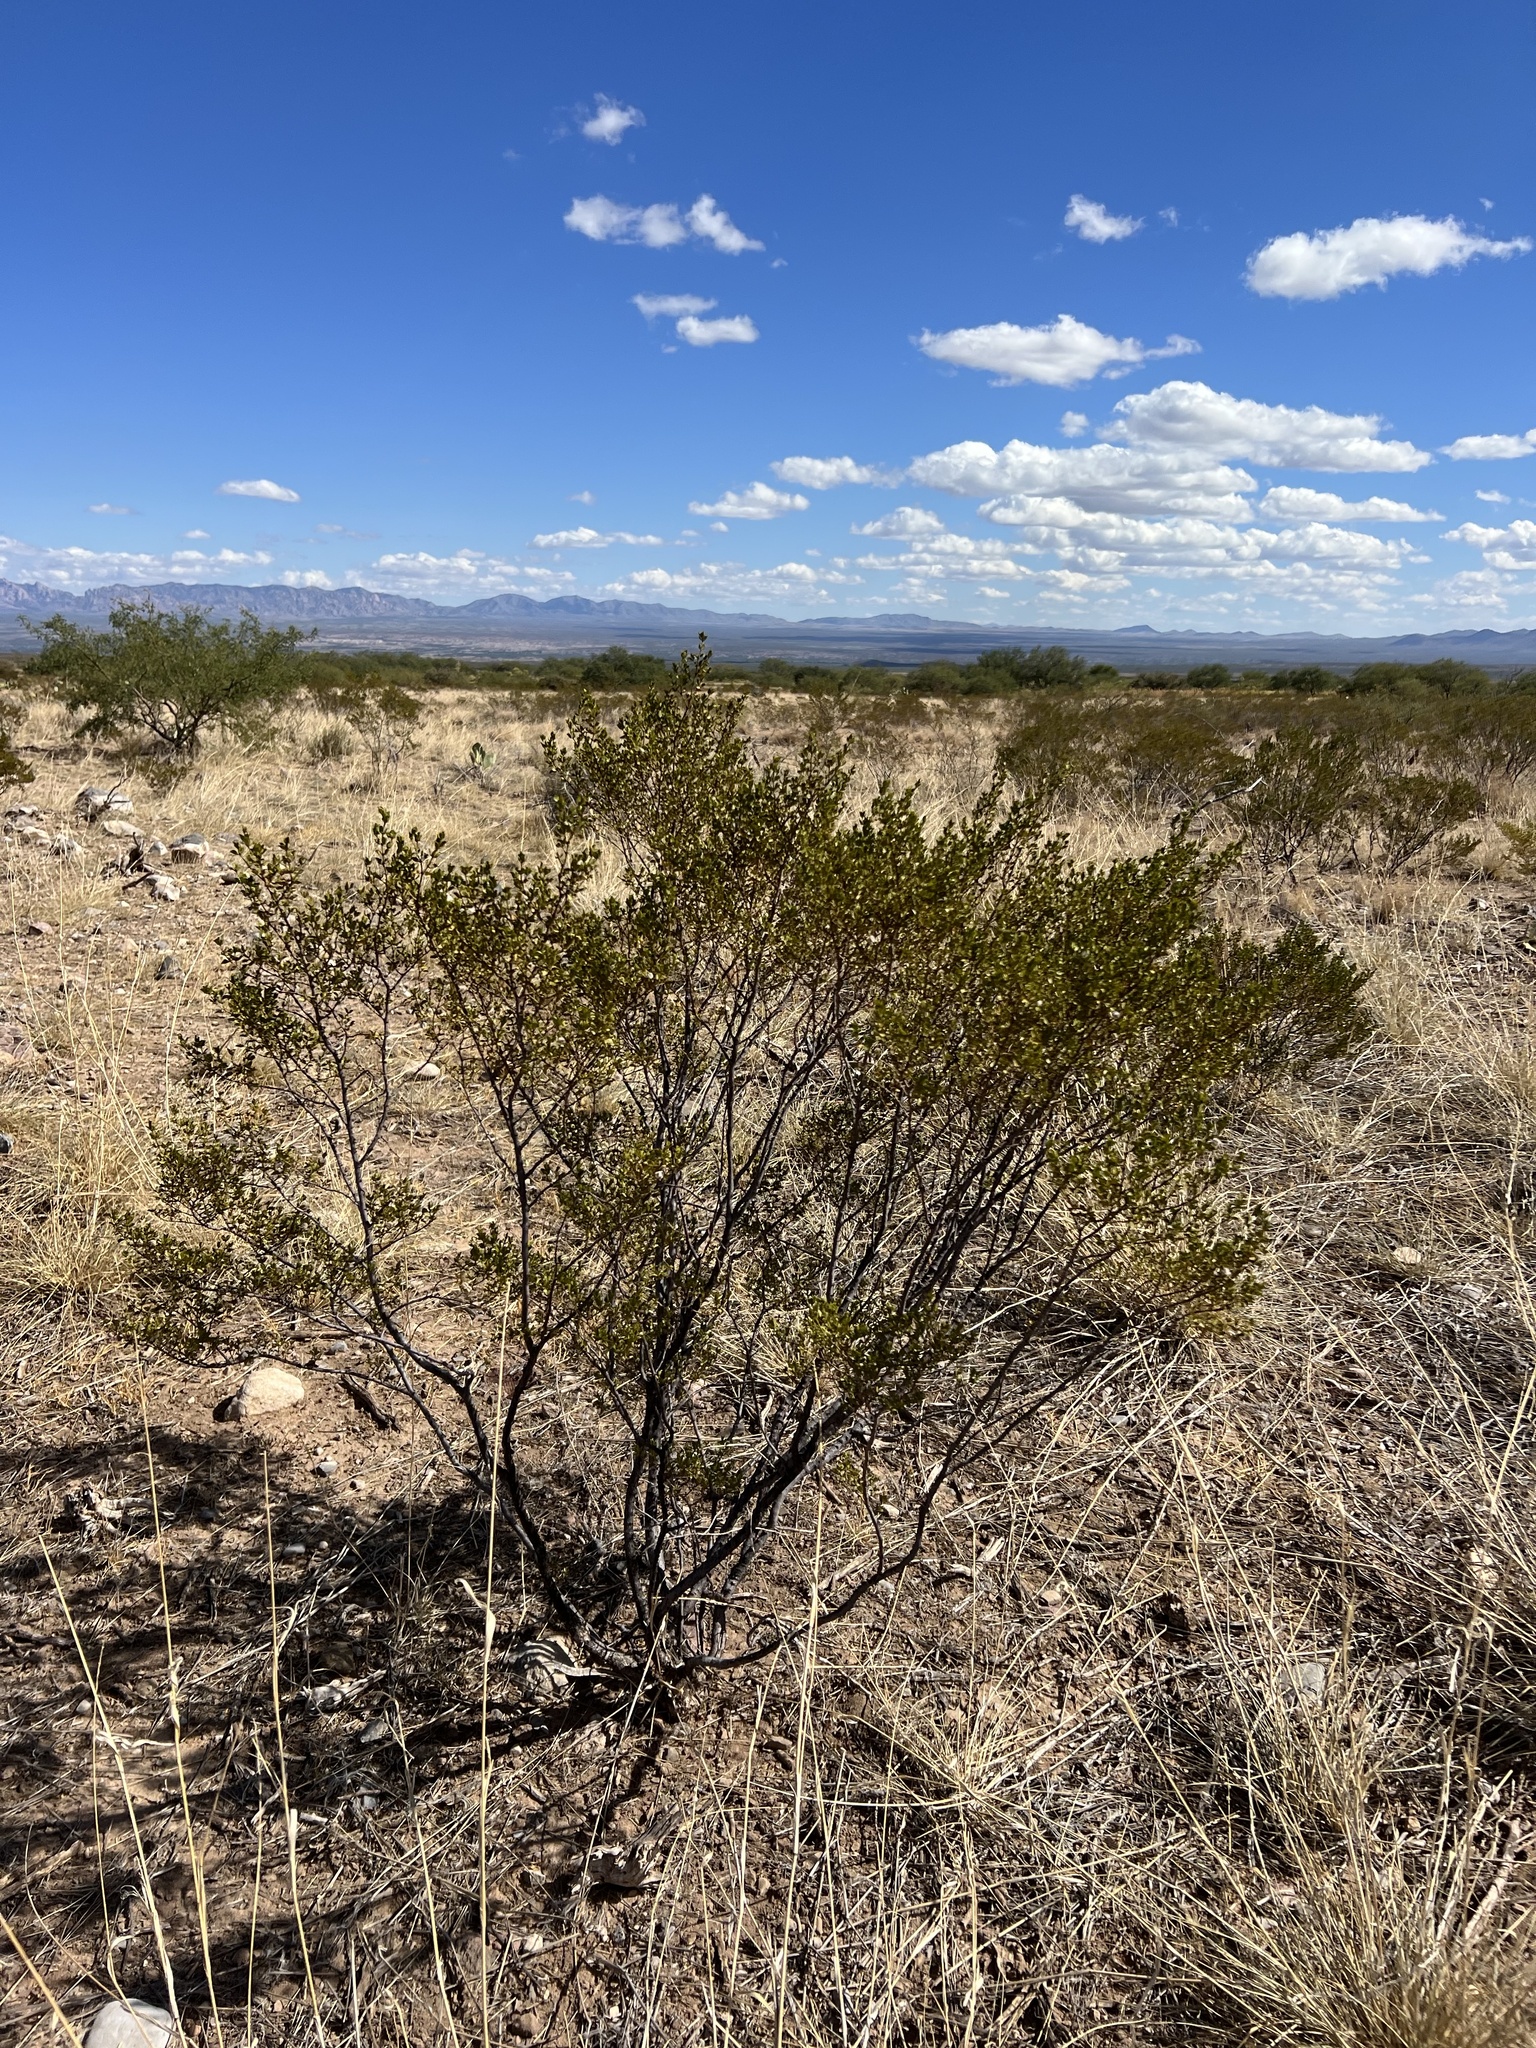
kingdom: Plantae
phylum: Tracheophyta
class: Magnoliopsida
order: Zygophyllales
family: Zygophyllaceae
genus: Larrea
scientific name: Larrea tridentata
